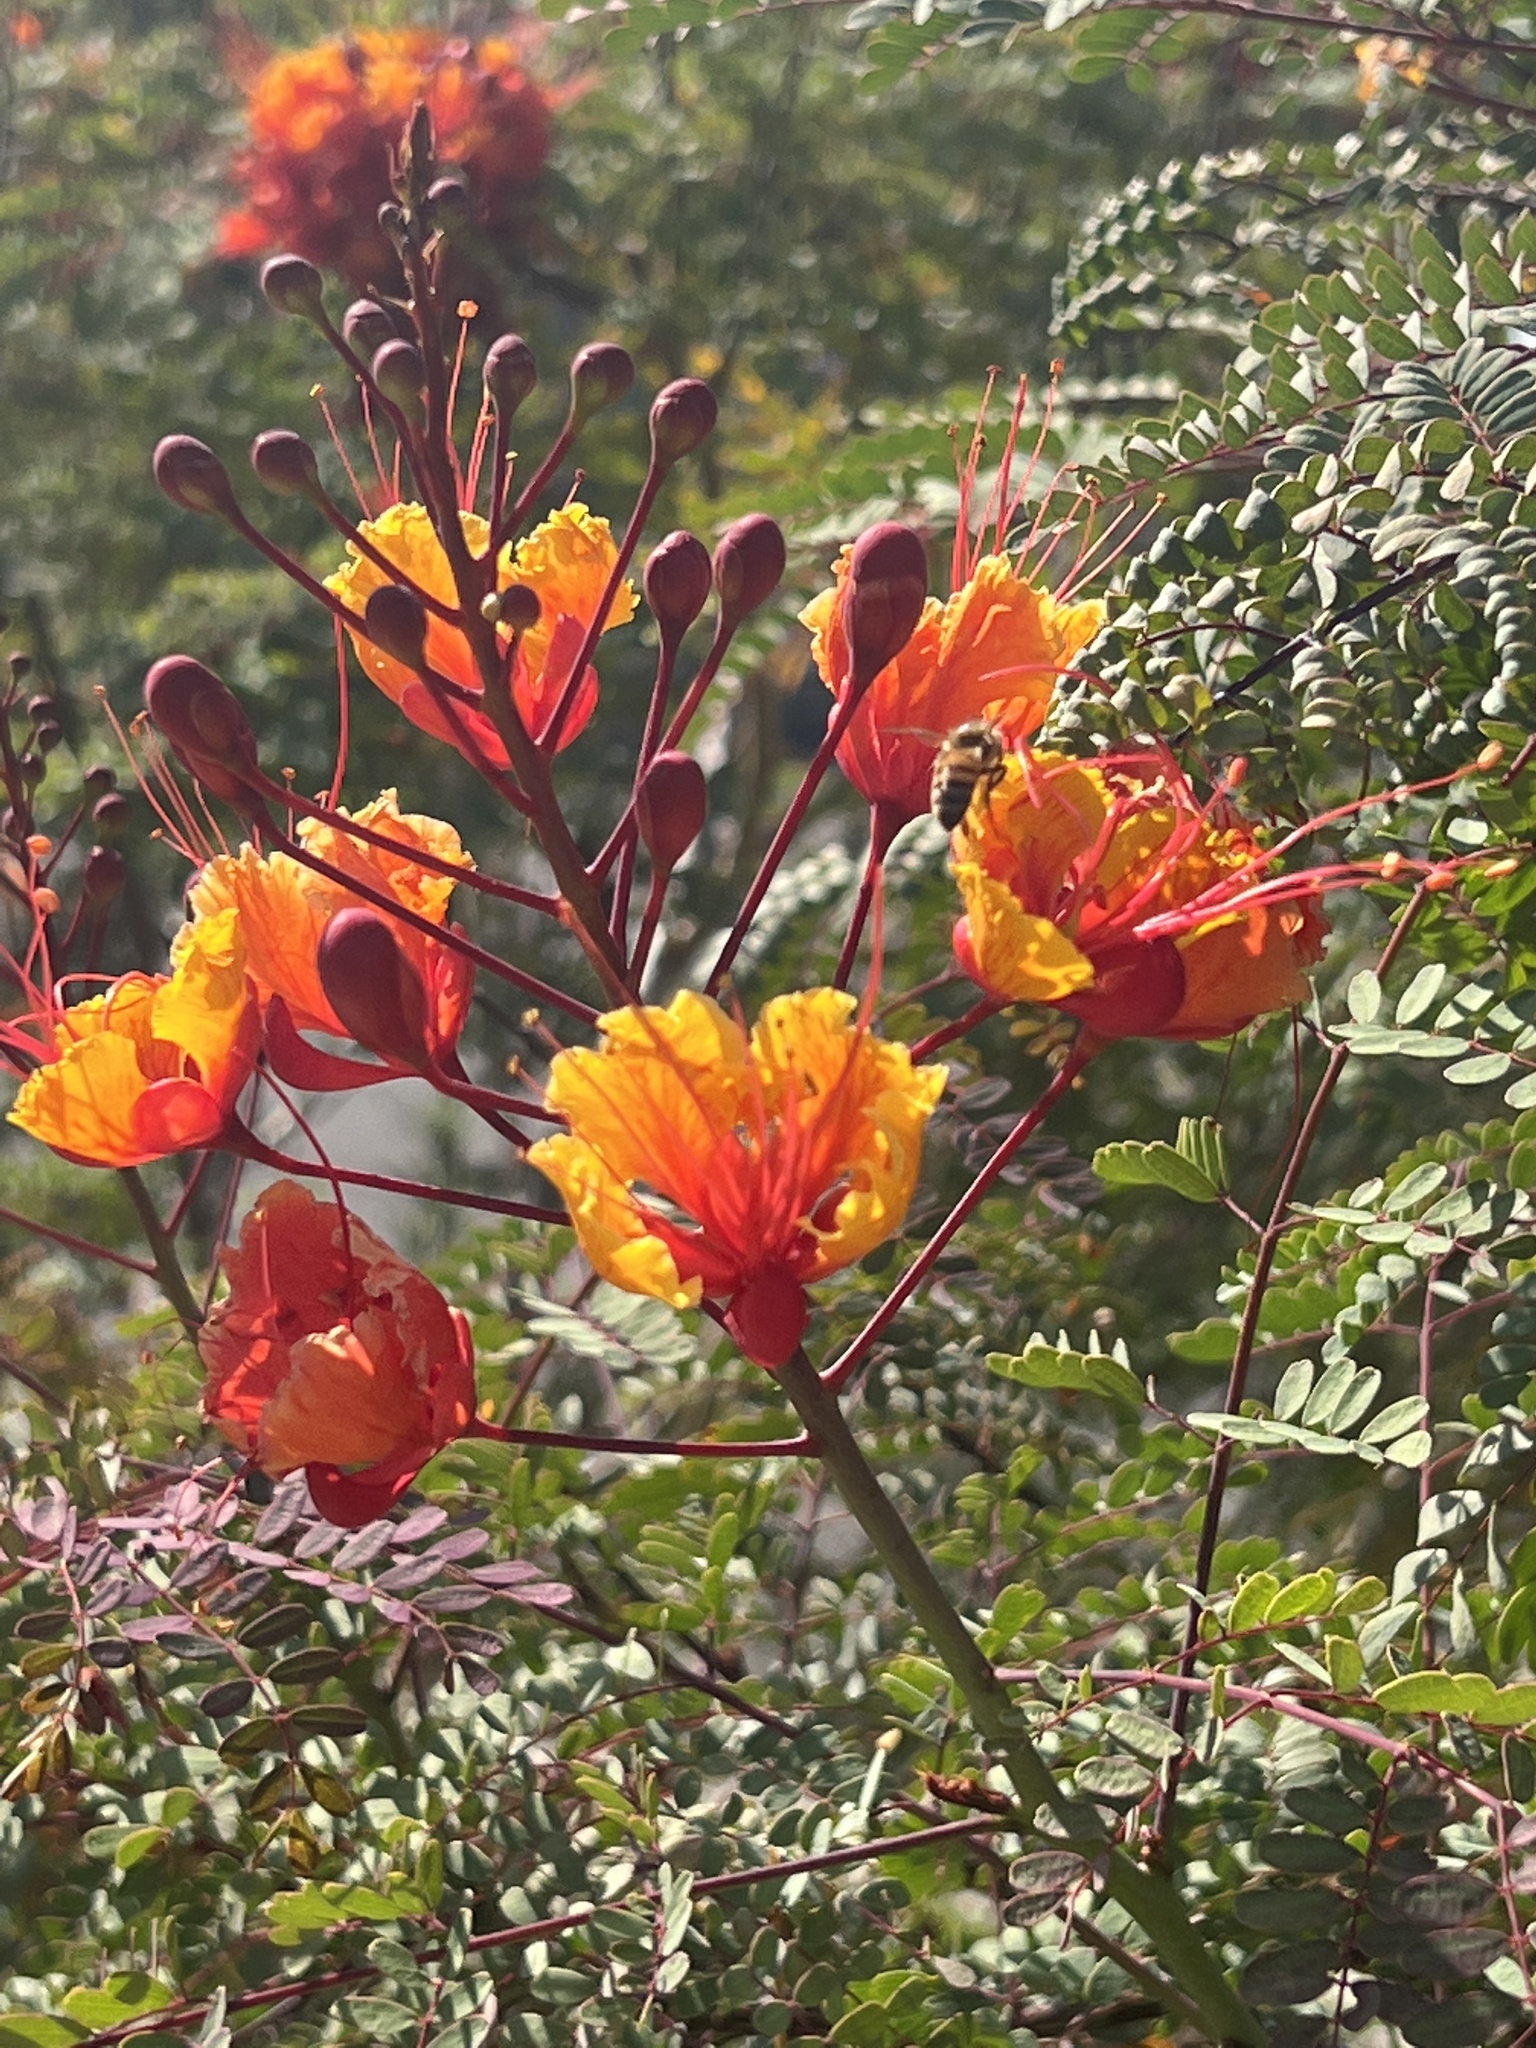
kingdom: Animalia
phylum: Arthropoda
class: Insecta
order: Hymenoptera
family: Apidae
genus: Apis
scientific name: Apis mellifera
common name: Honey bee
